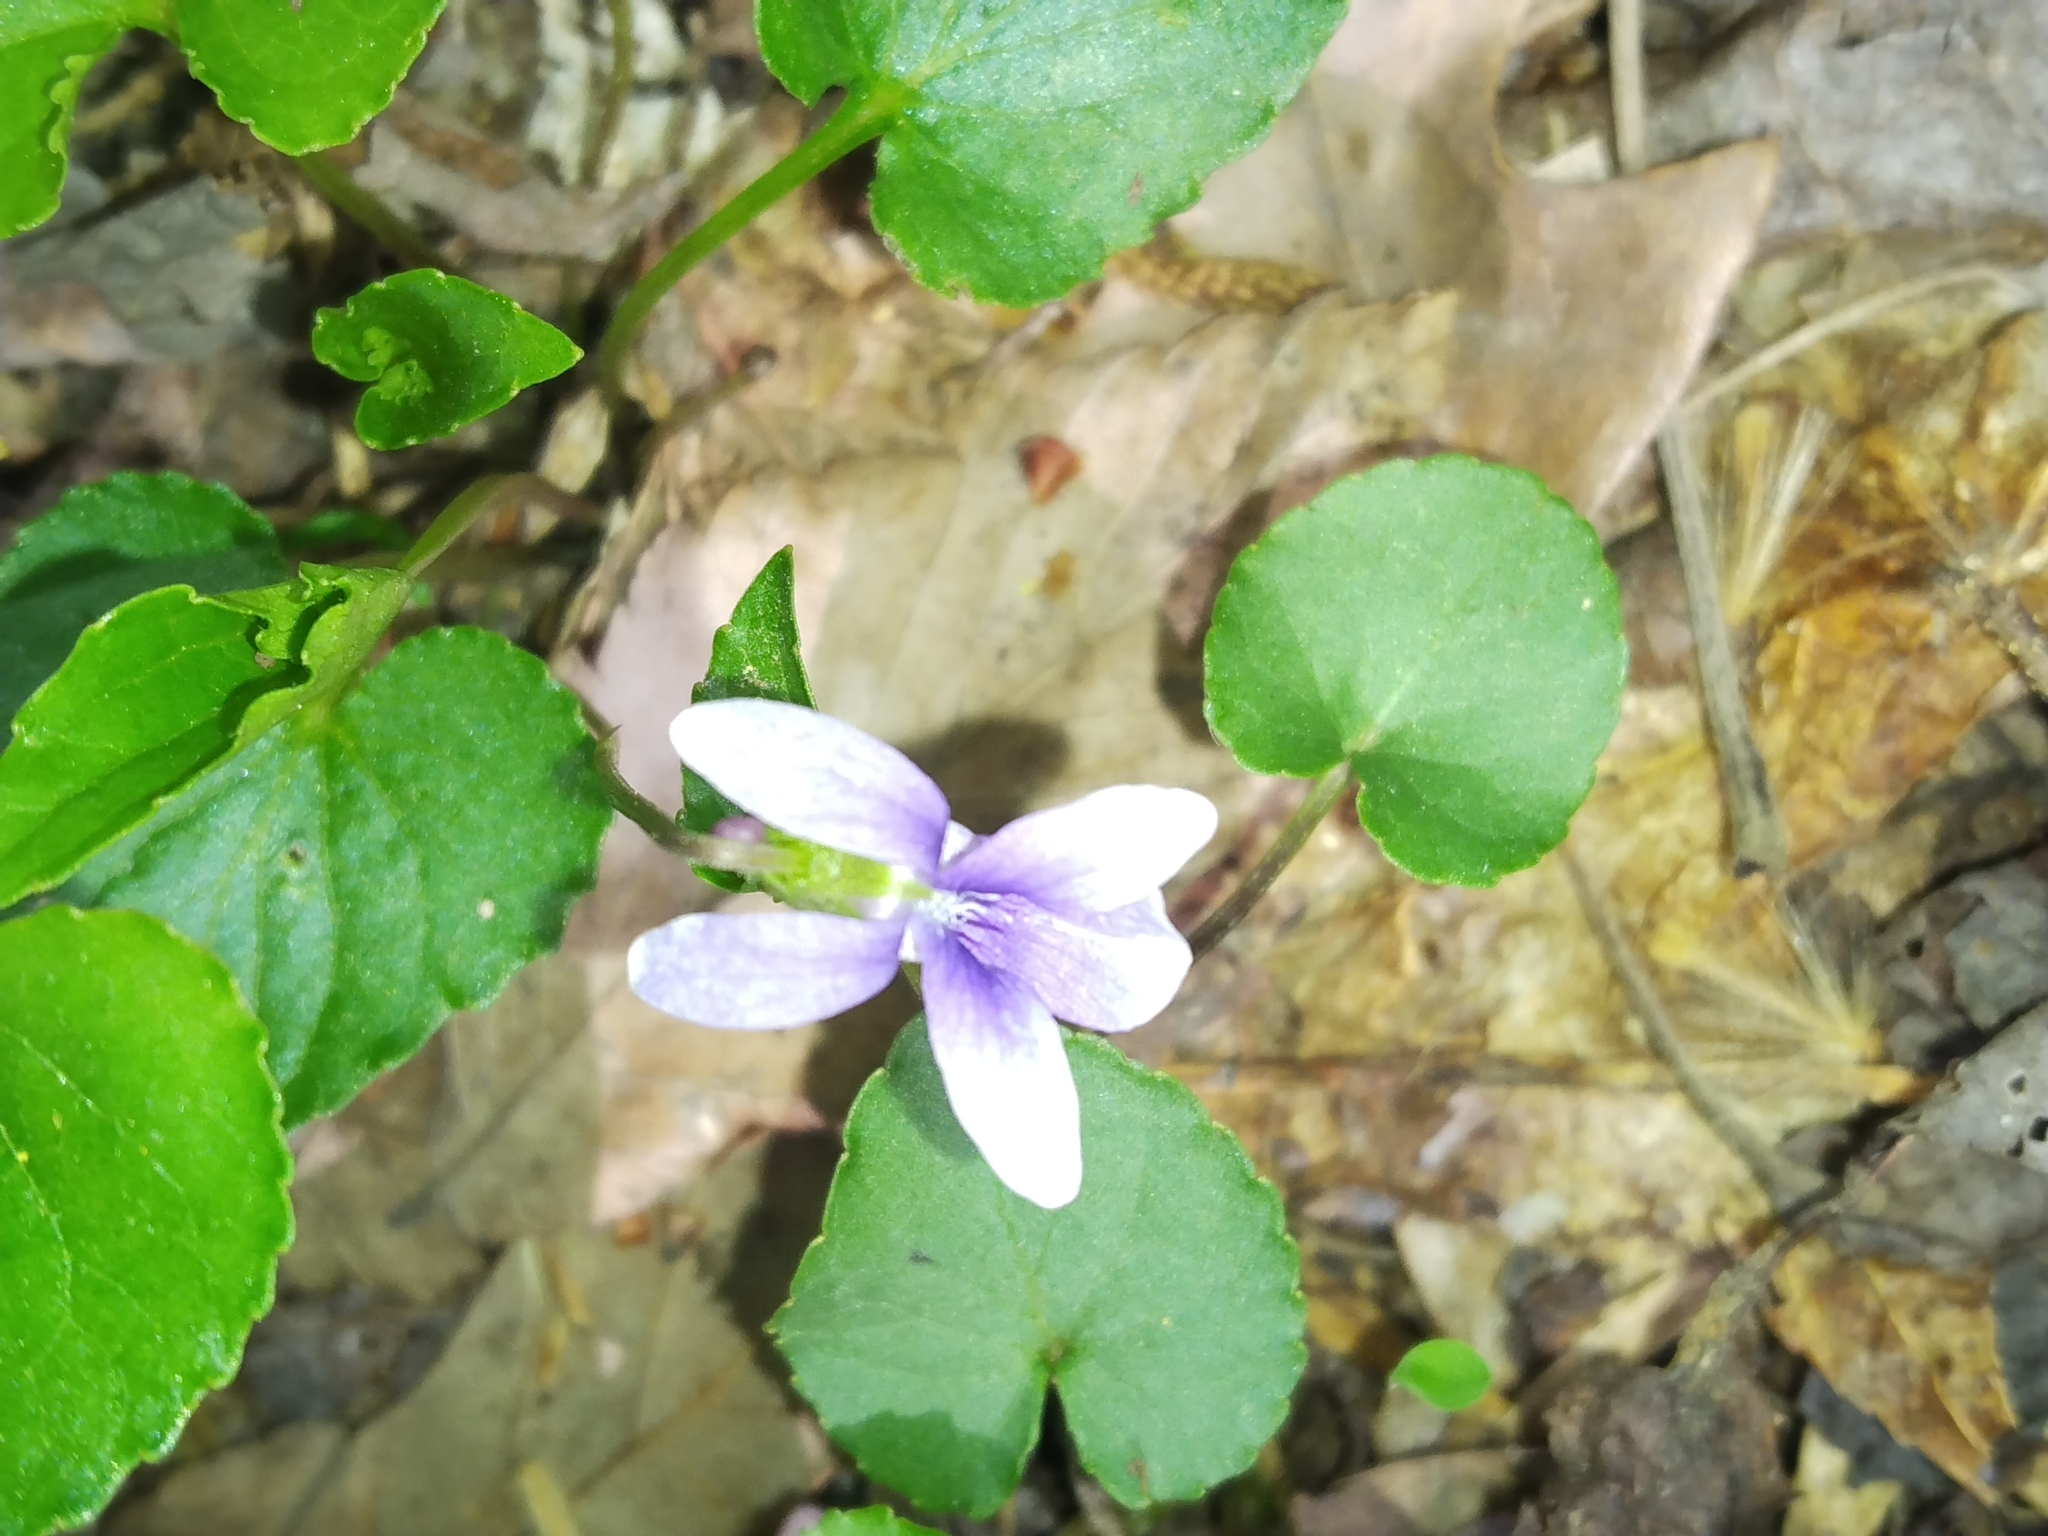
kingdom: Plantae
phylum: Tracheophyta
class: Magnoliopsida
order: Malpighiales
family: Violaceae
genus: Viola
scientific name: Viola sororia
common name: Dooryard violet
